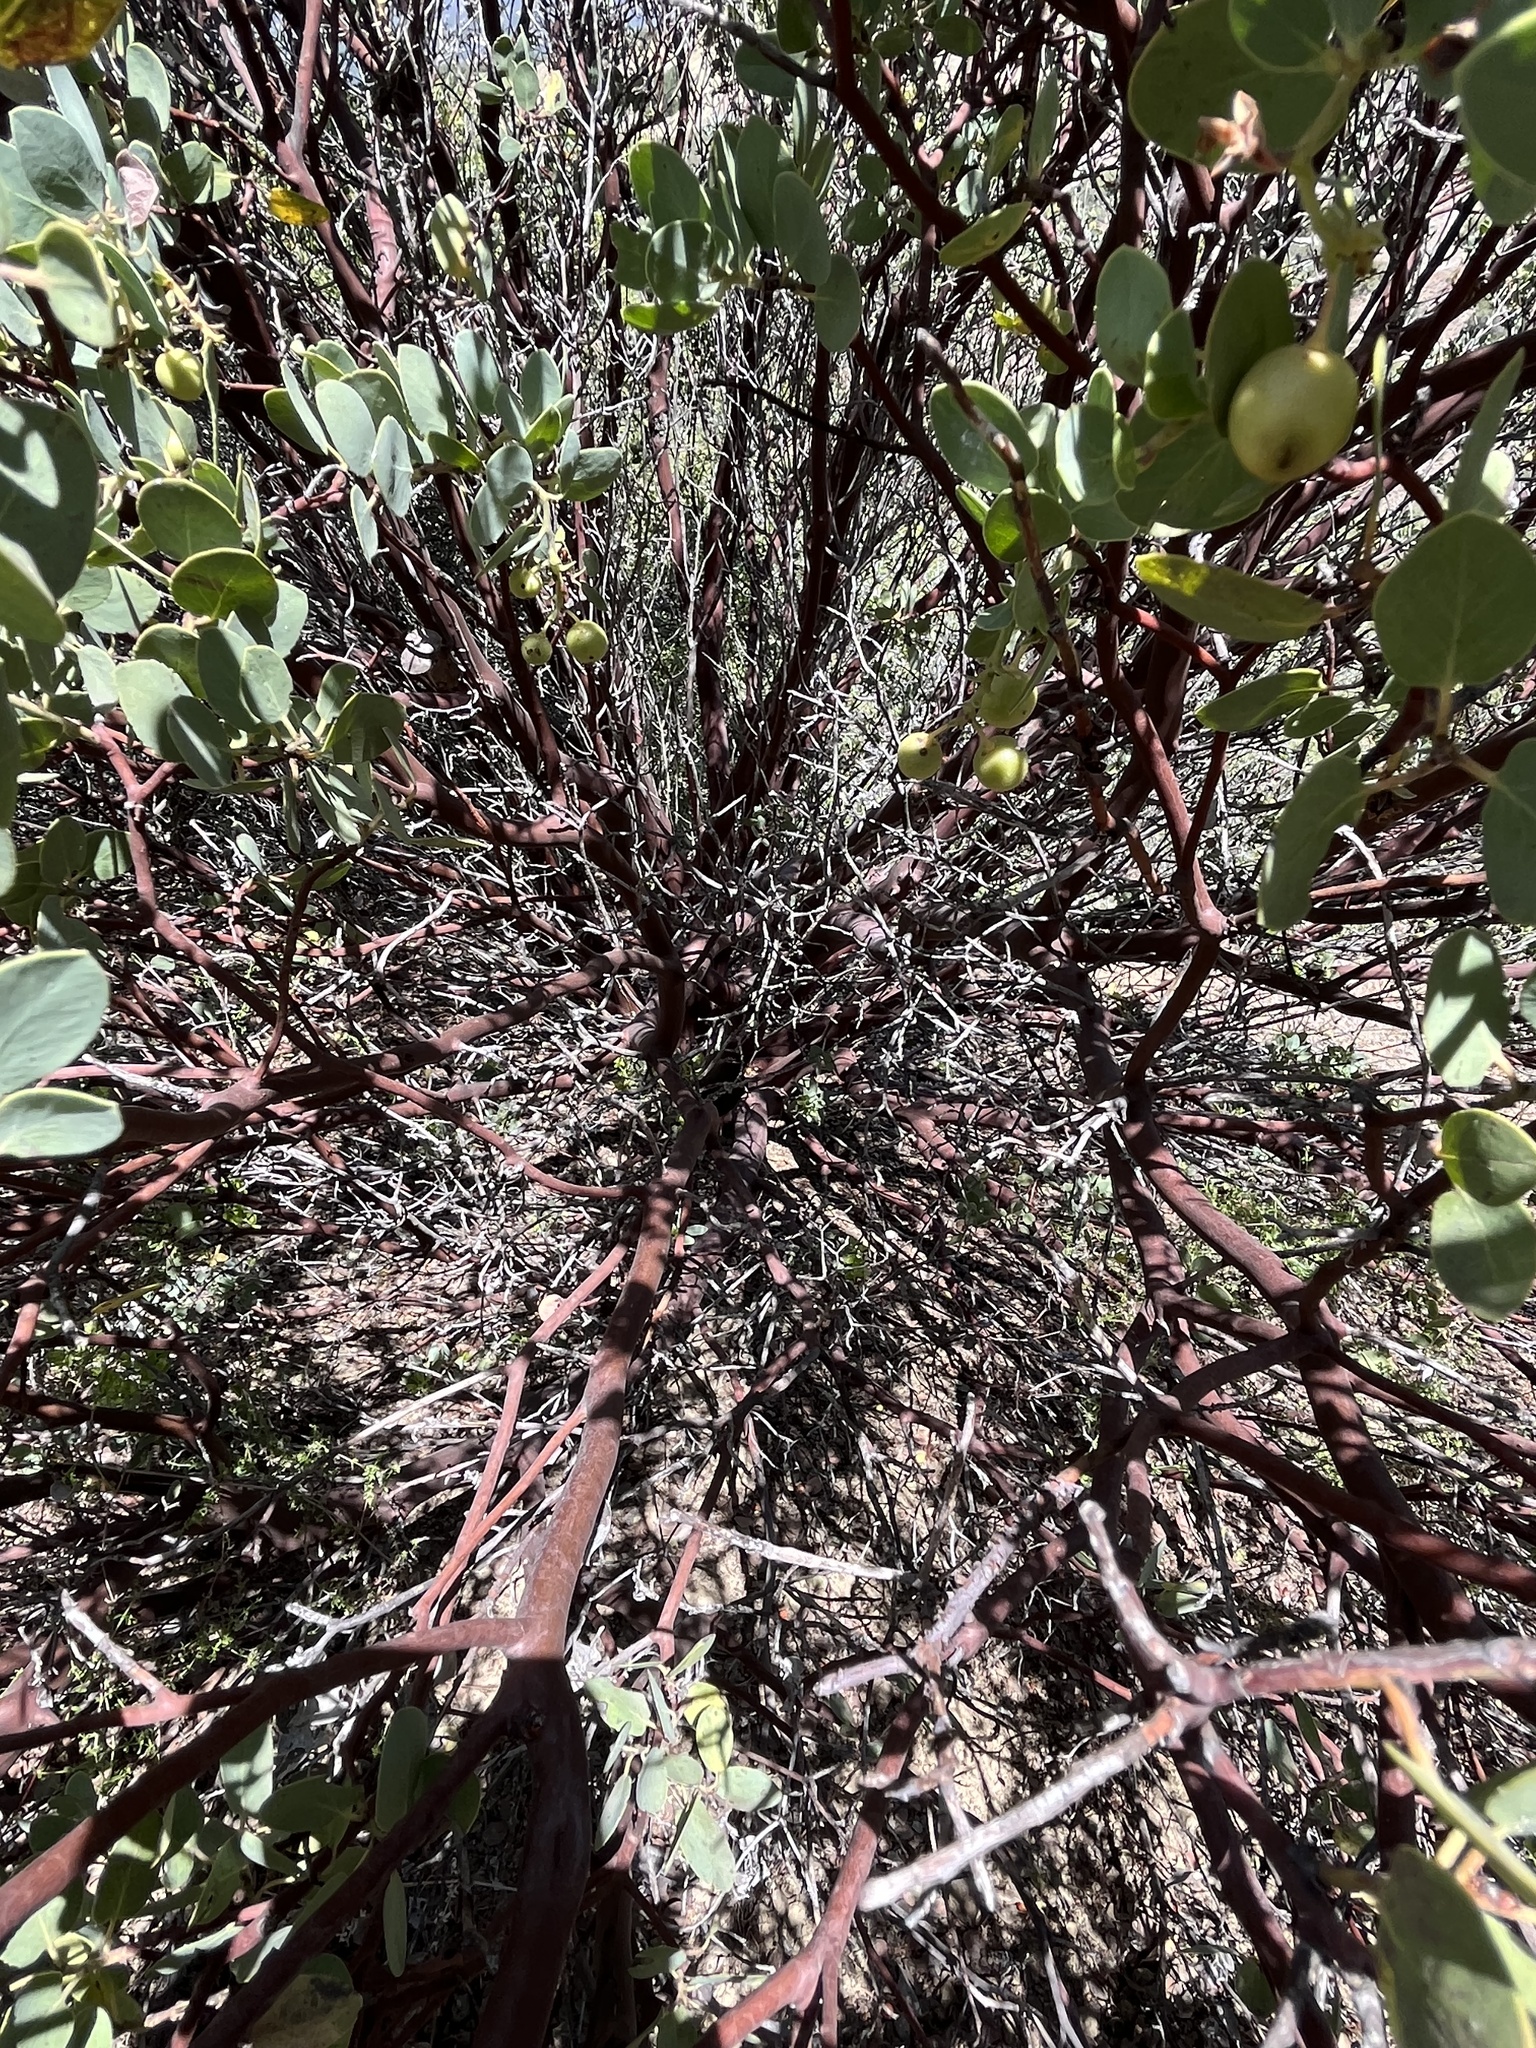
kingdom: Plantae
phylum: Tracheophyta
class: Magnoliopsida
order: Ericales
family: Ericaceae
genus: Arctostaphylos
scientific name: Arctostaphylos glauca
